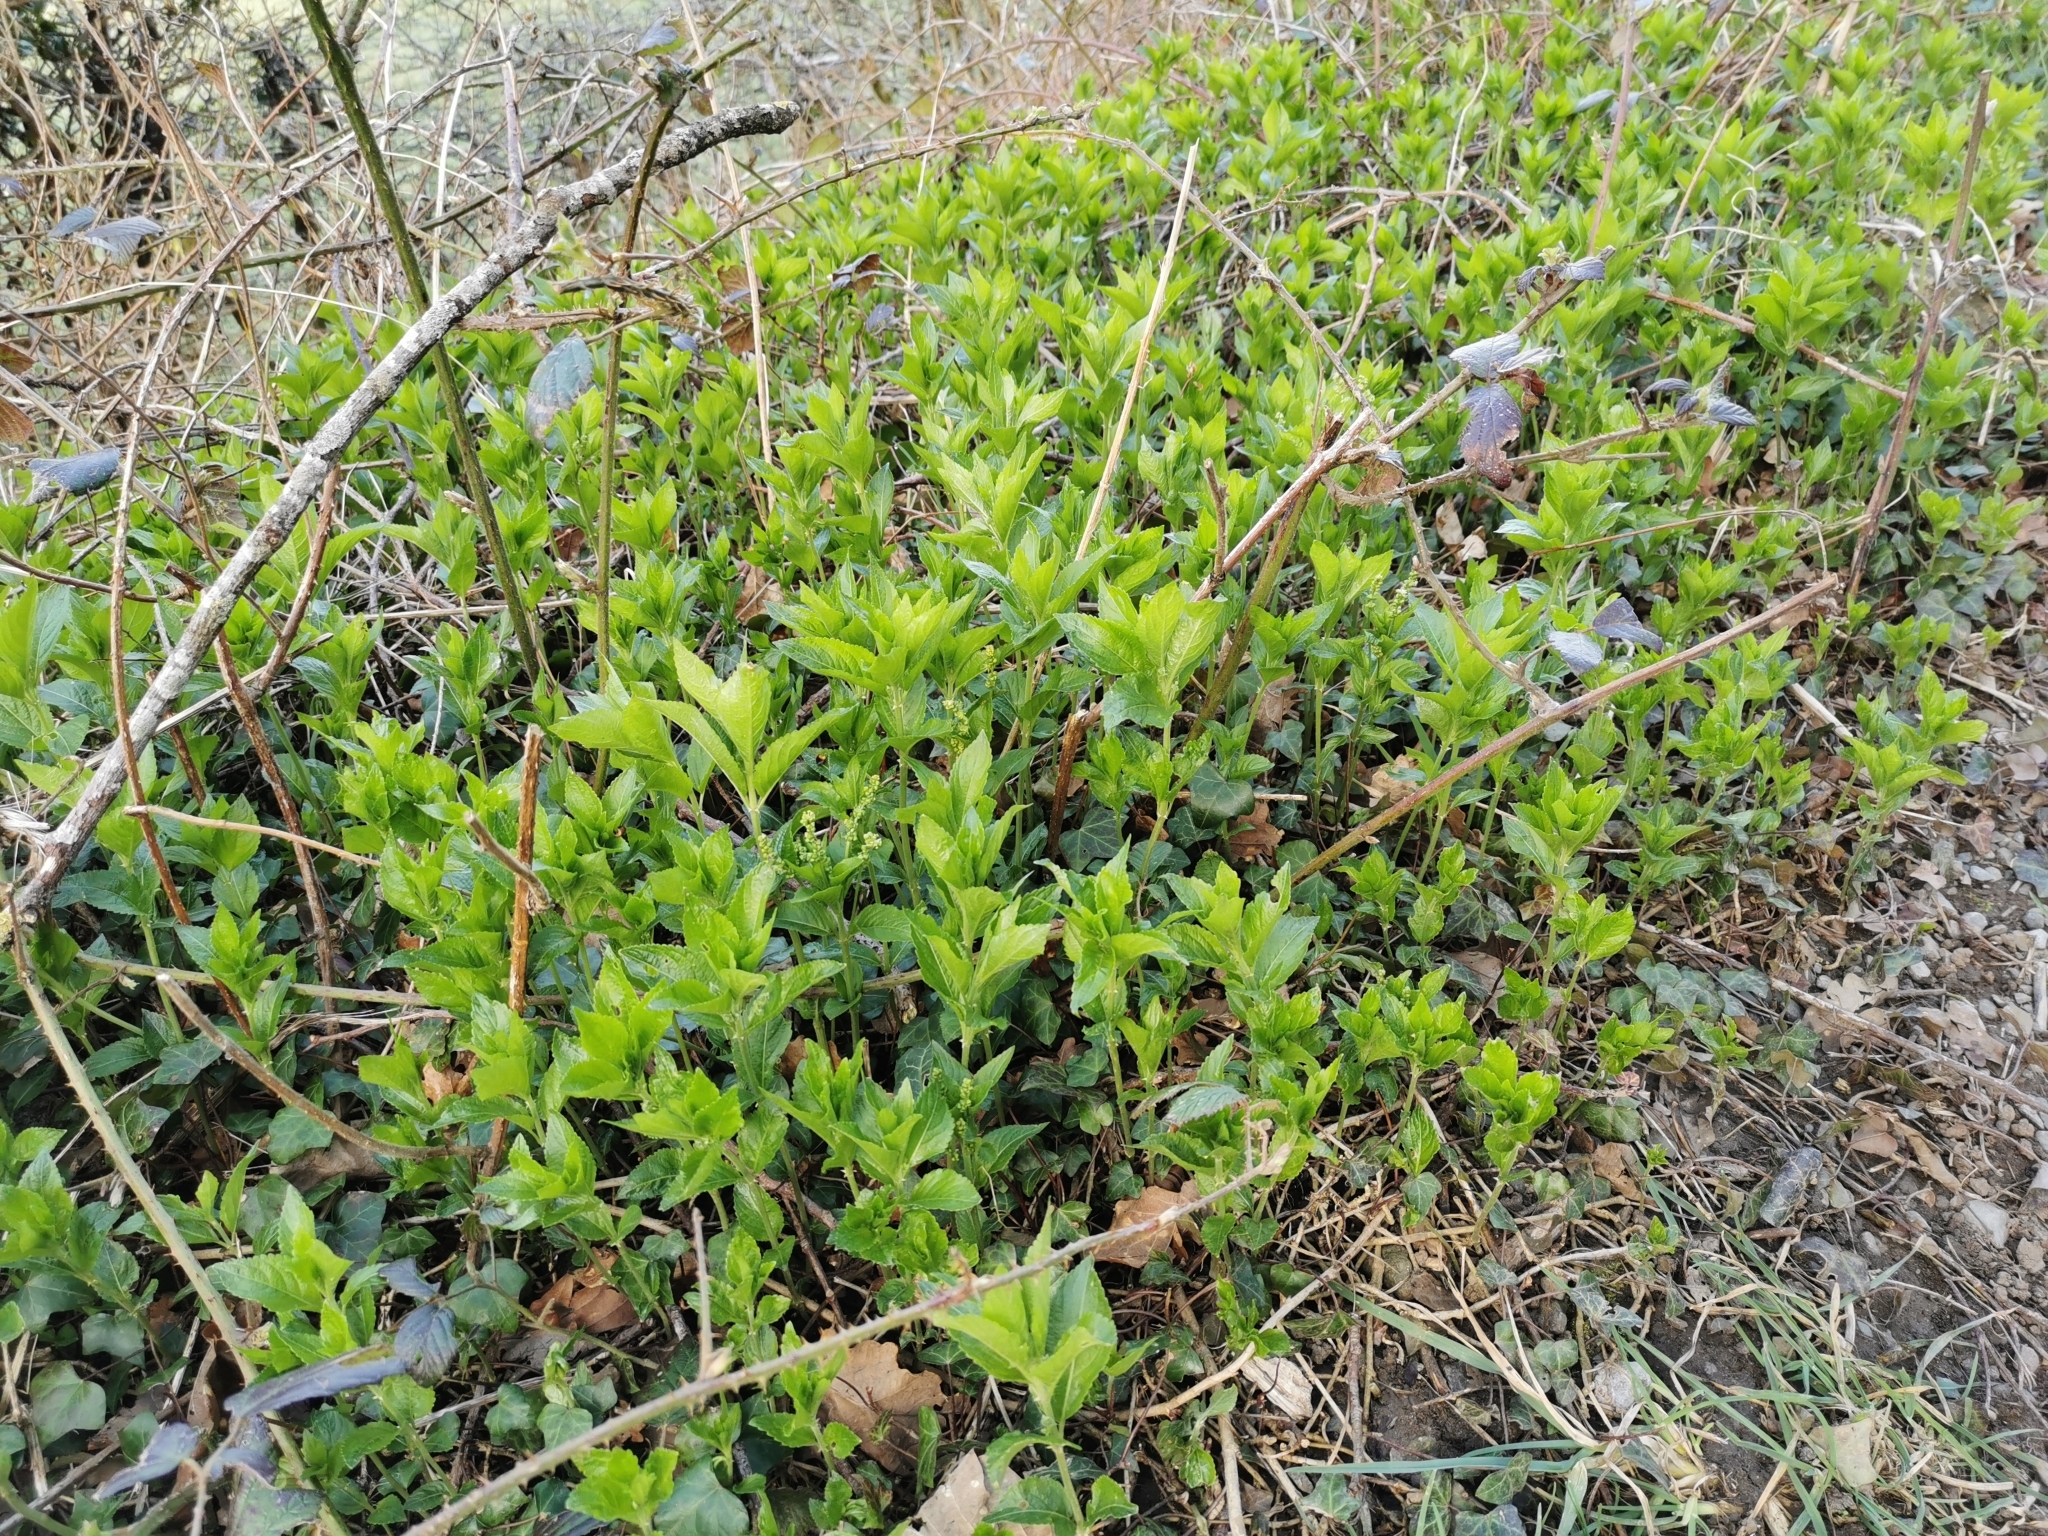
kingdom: Plantae
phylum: Tracheophyta
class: Magnoliopsida
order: Malpighiales
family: Euphorbiaceae
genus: Mercurialis
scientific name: Mercurialis perennis
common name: Dog mercury
